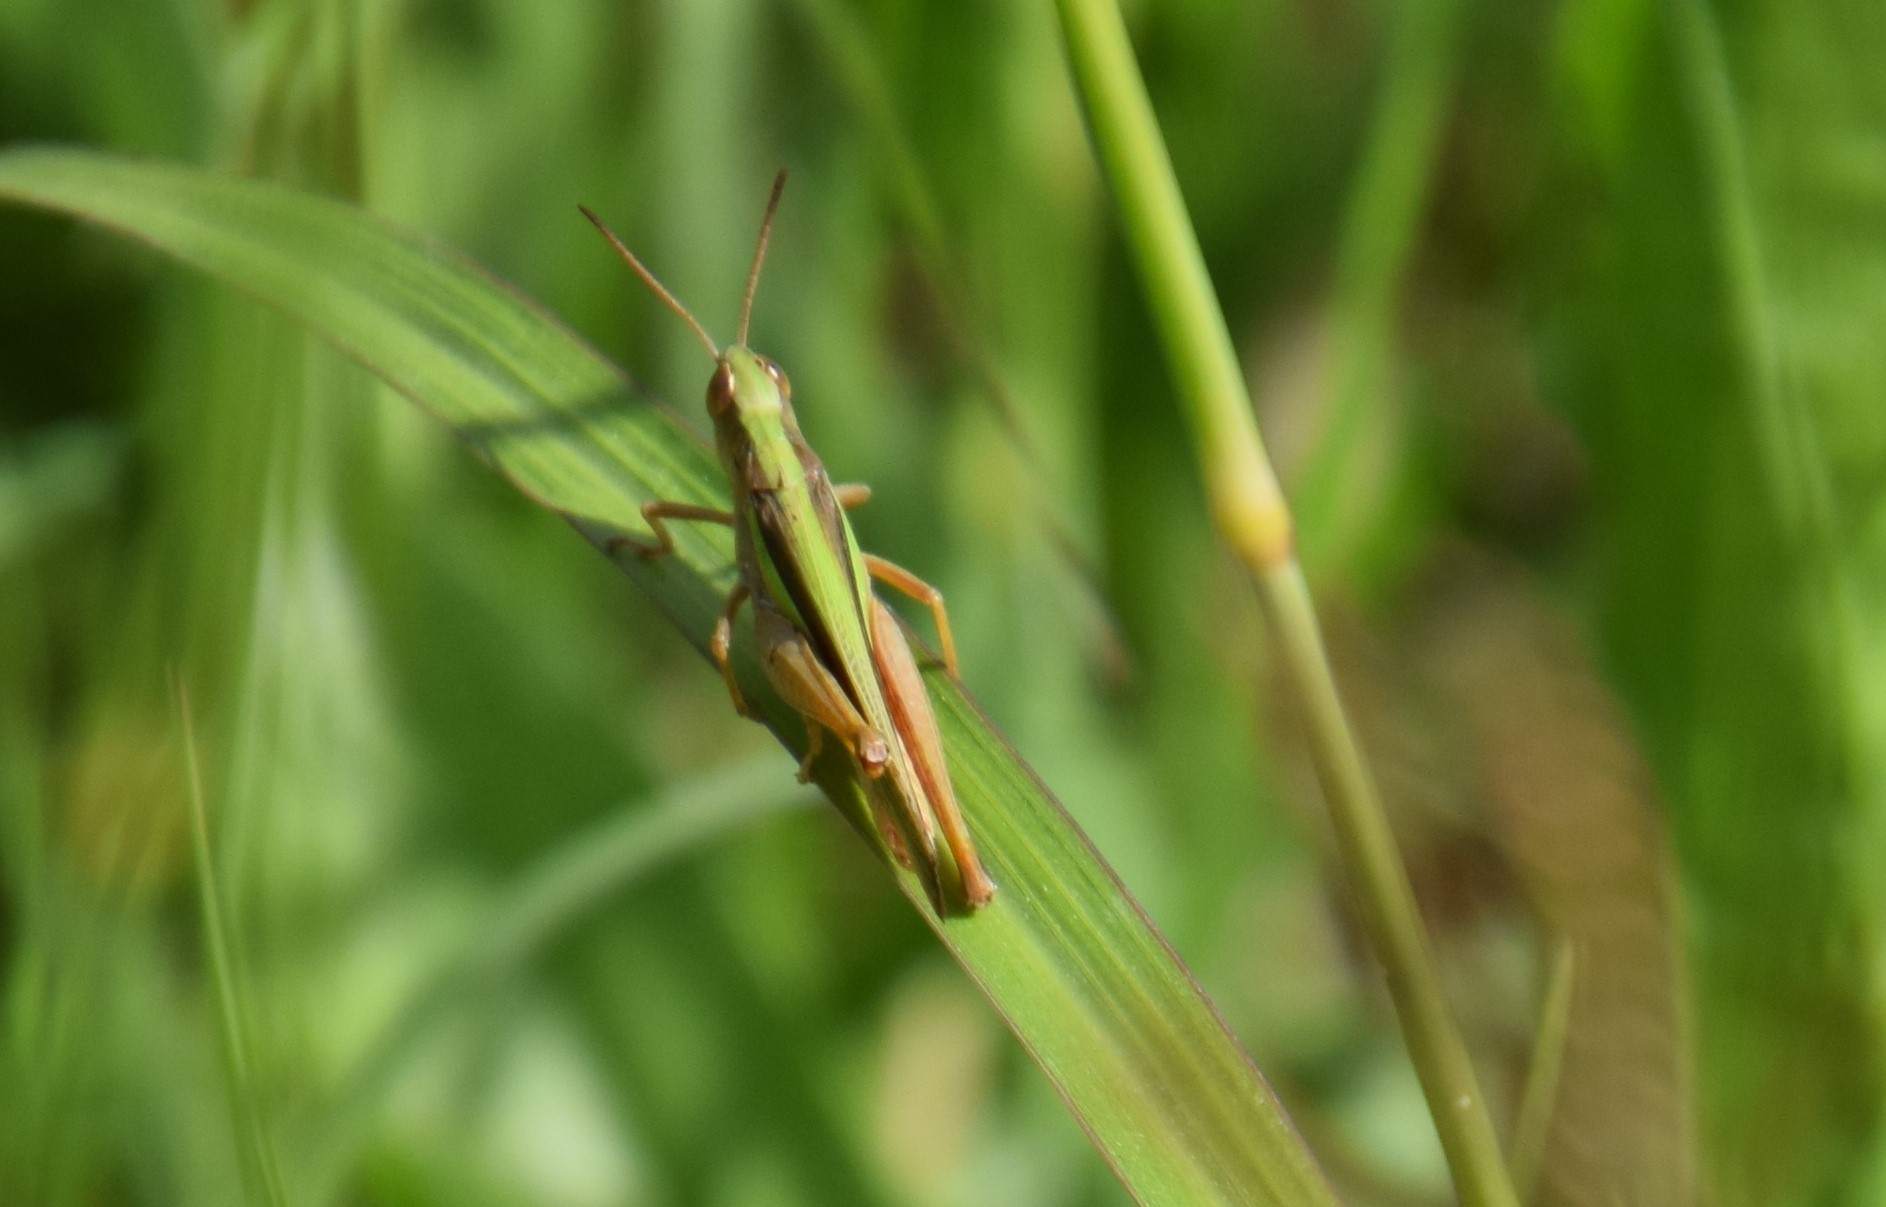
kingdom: Animalia
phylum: Arthropoda
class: Insecta
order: Orthoptera
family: Acrididae
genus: Bermius
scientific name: Bermius brachycerus
